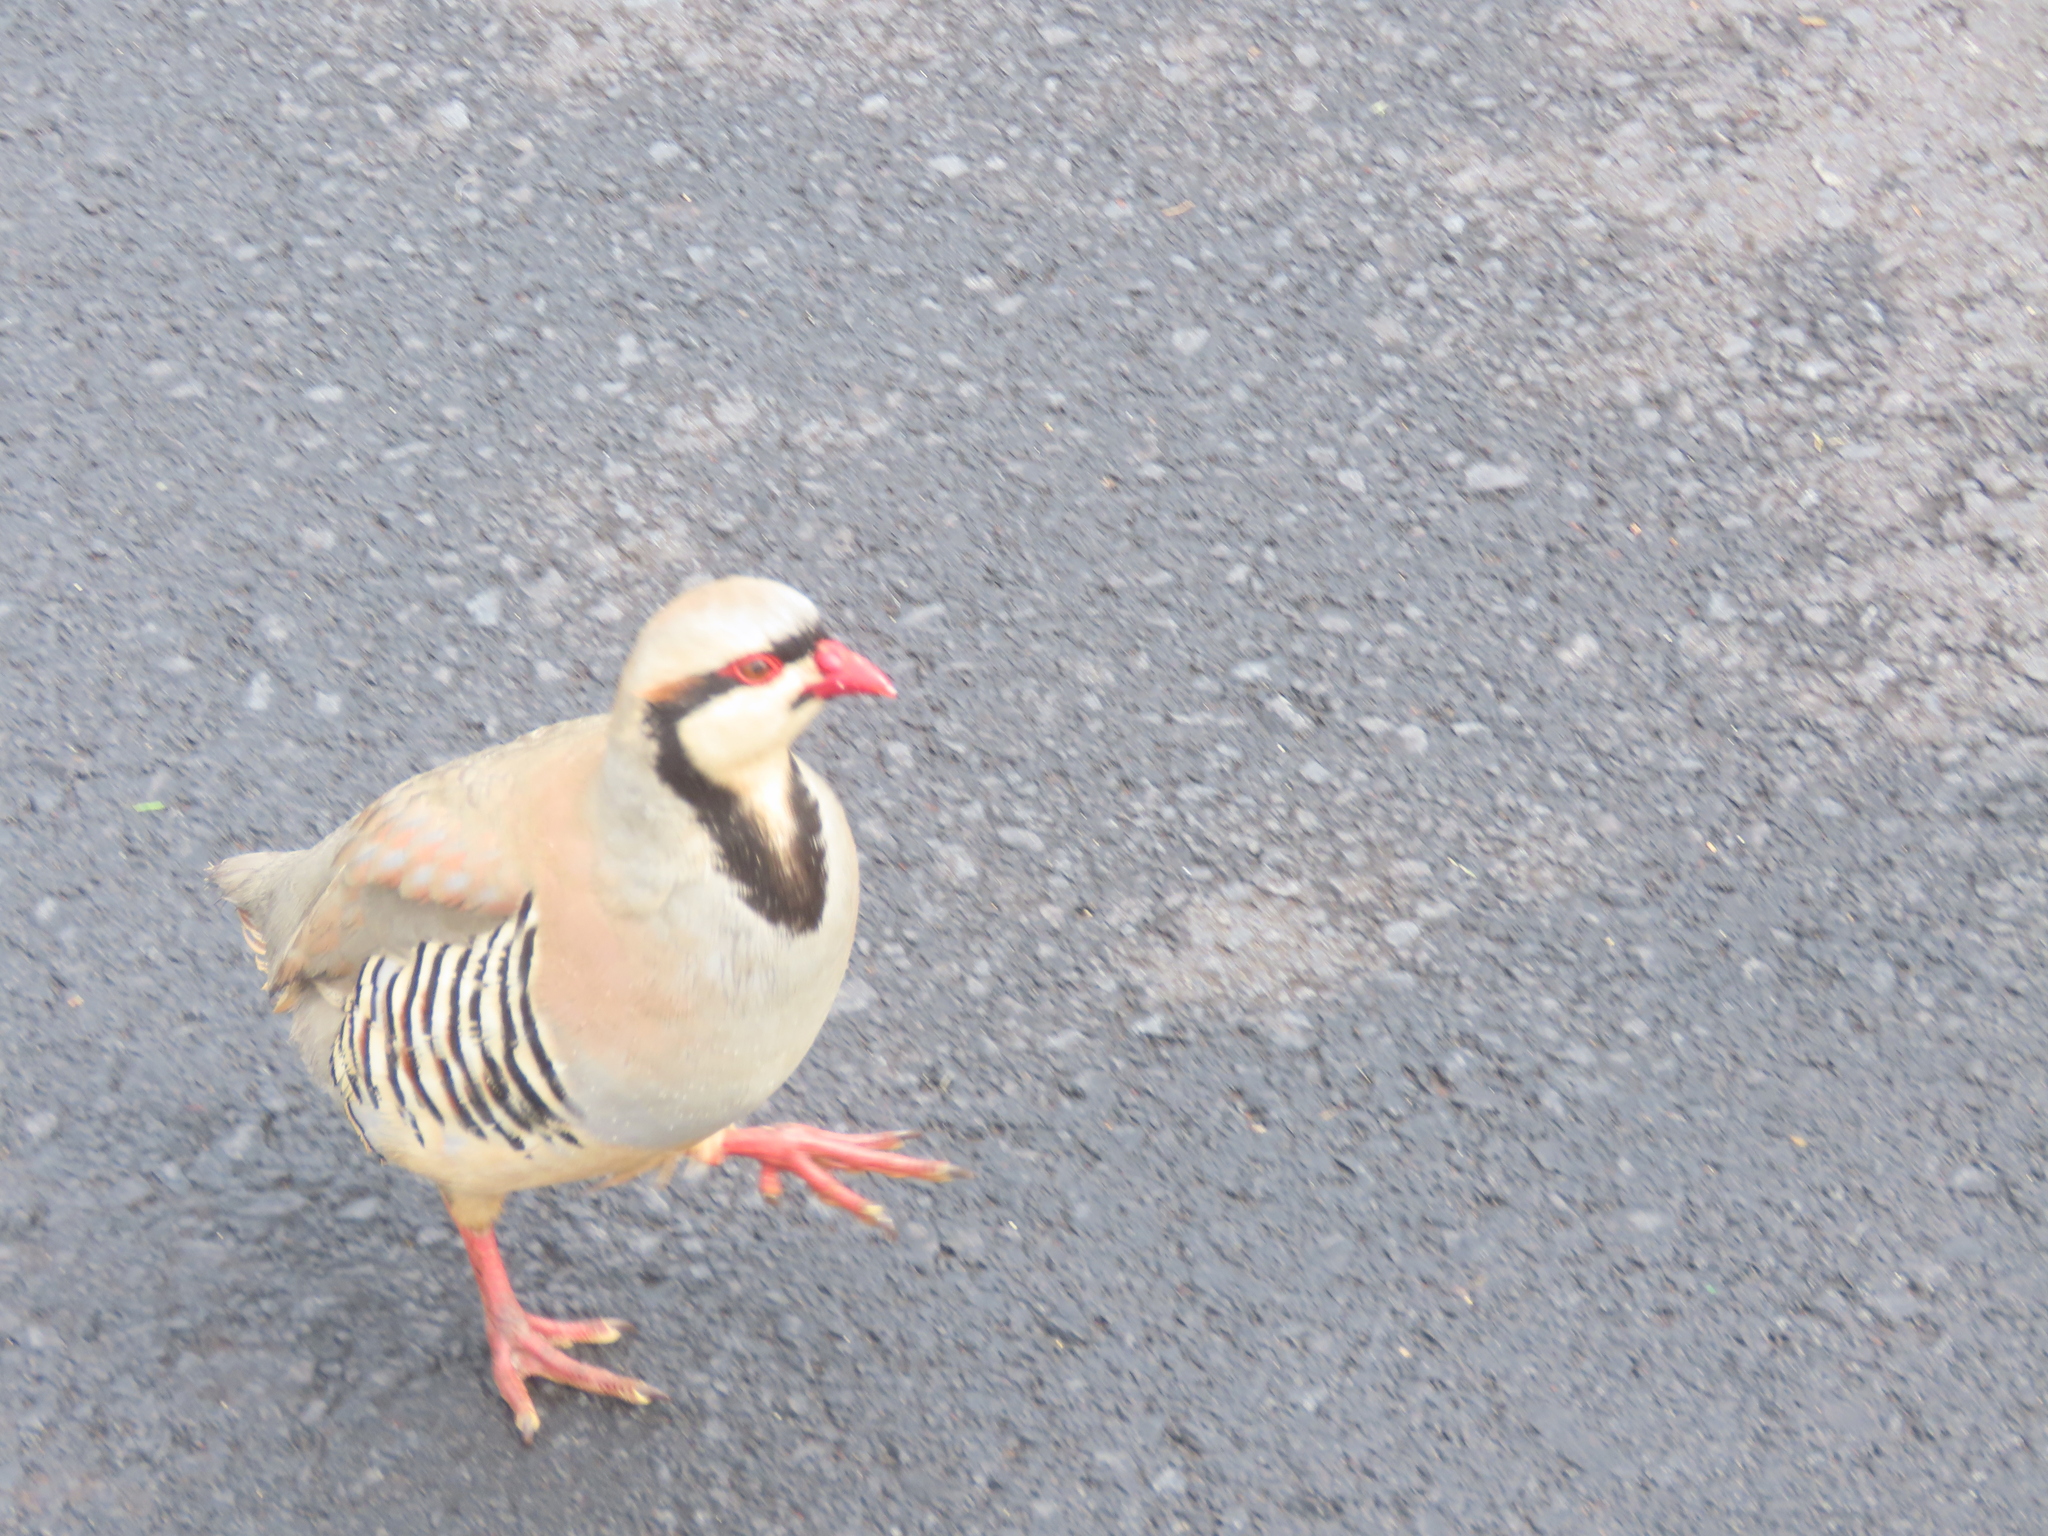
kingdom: Animalia
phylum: Chordata
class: Aves
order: Galliformes
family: Phasianidae
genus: Alectoris
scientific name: Alectoris chukar
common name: Chukar
